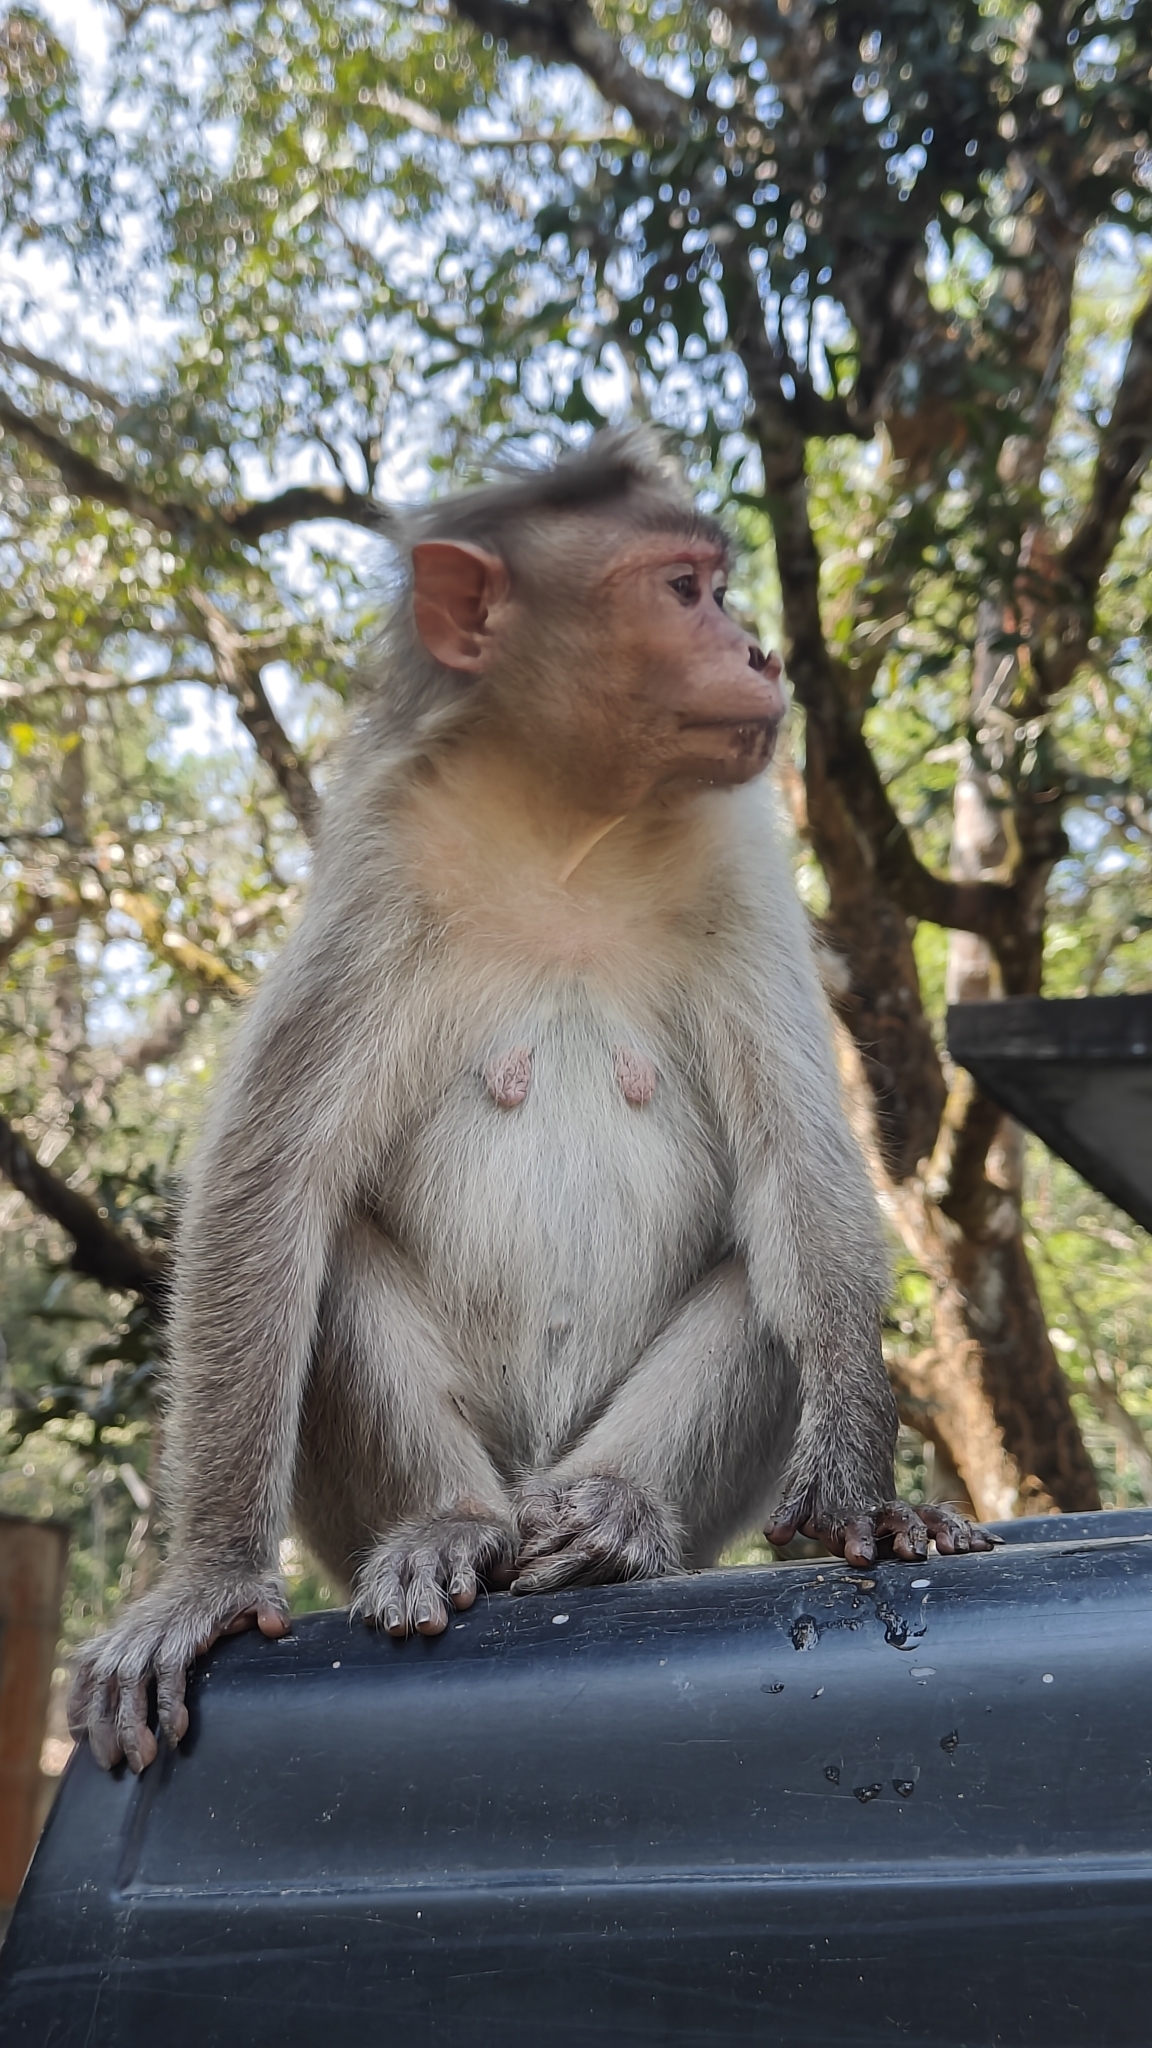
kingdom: Animalia
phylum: Chordata
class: Mammalia
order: Primates
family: Cercopithecidae
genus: Macaca
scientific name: Macaca radiata
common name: Bonnet macaque
